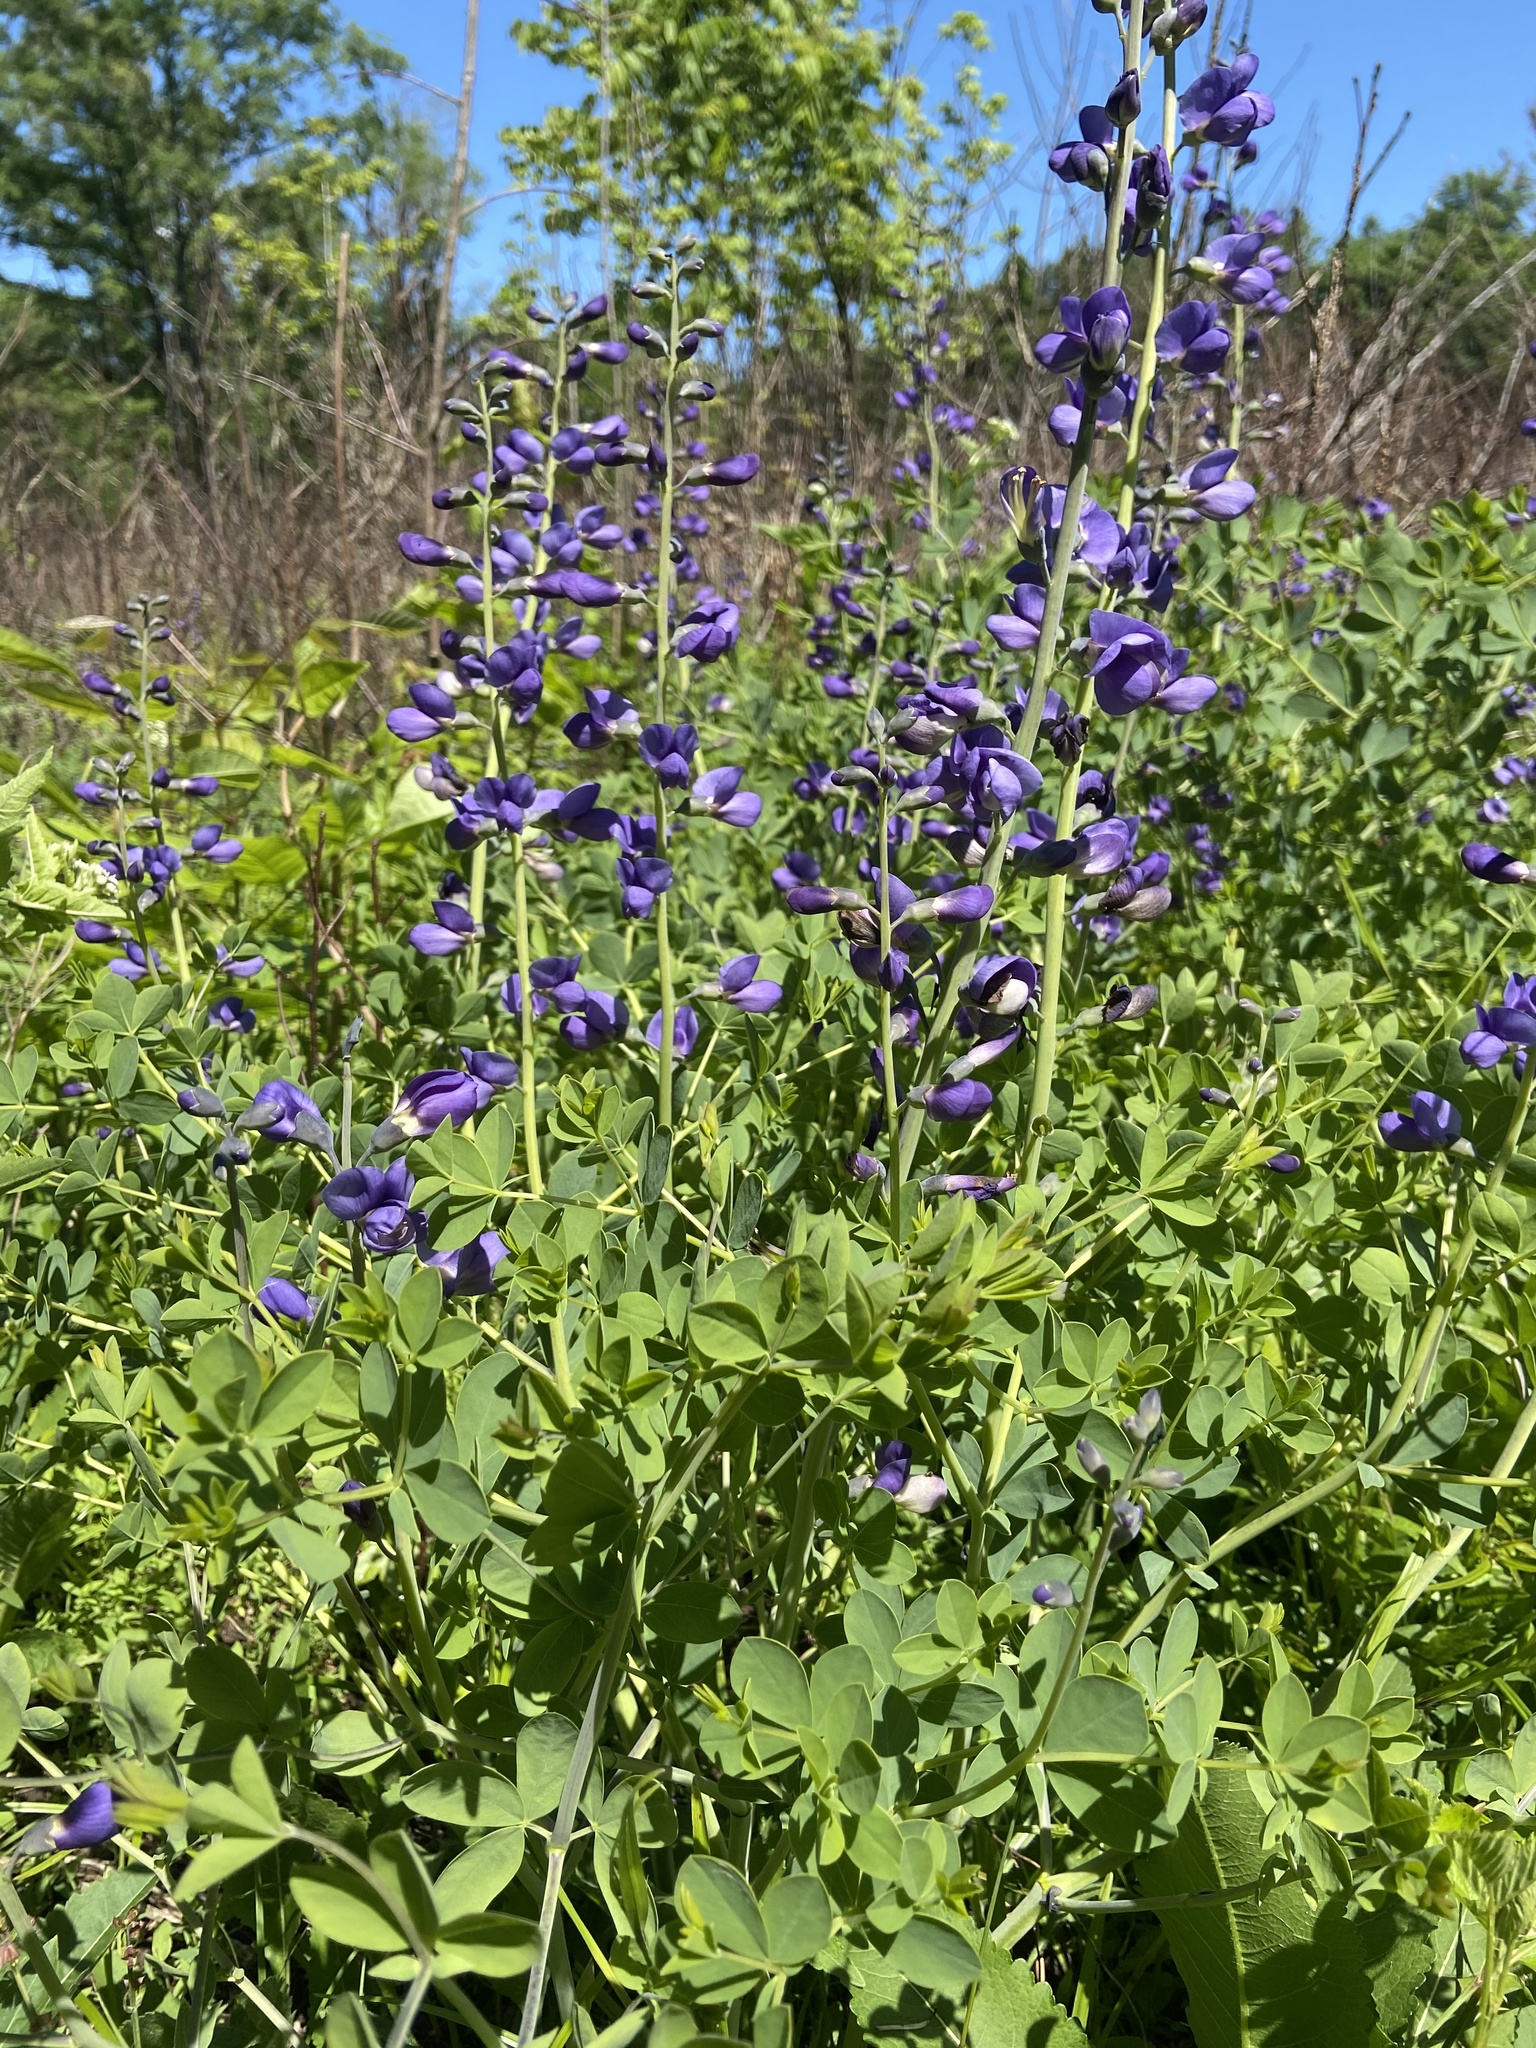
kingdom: Plantae
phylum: Tracheophyta
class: Magnoliopsida
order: Fabales
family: Fabaceae
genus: Baptisia
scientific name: Baptisia aberrans
